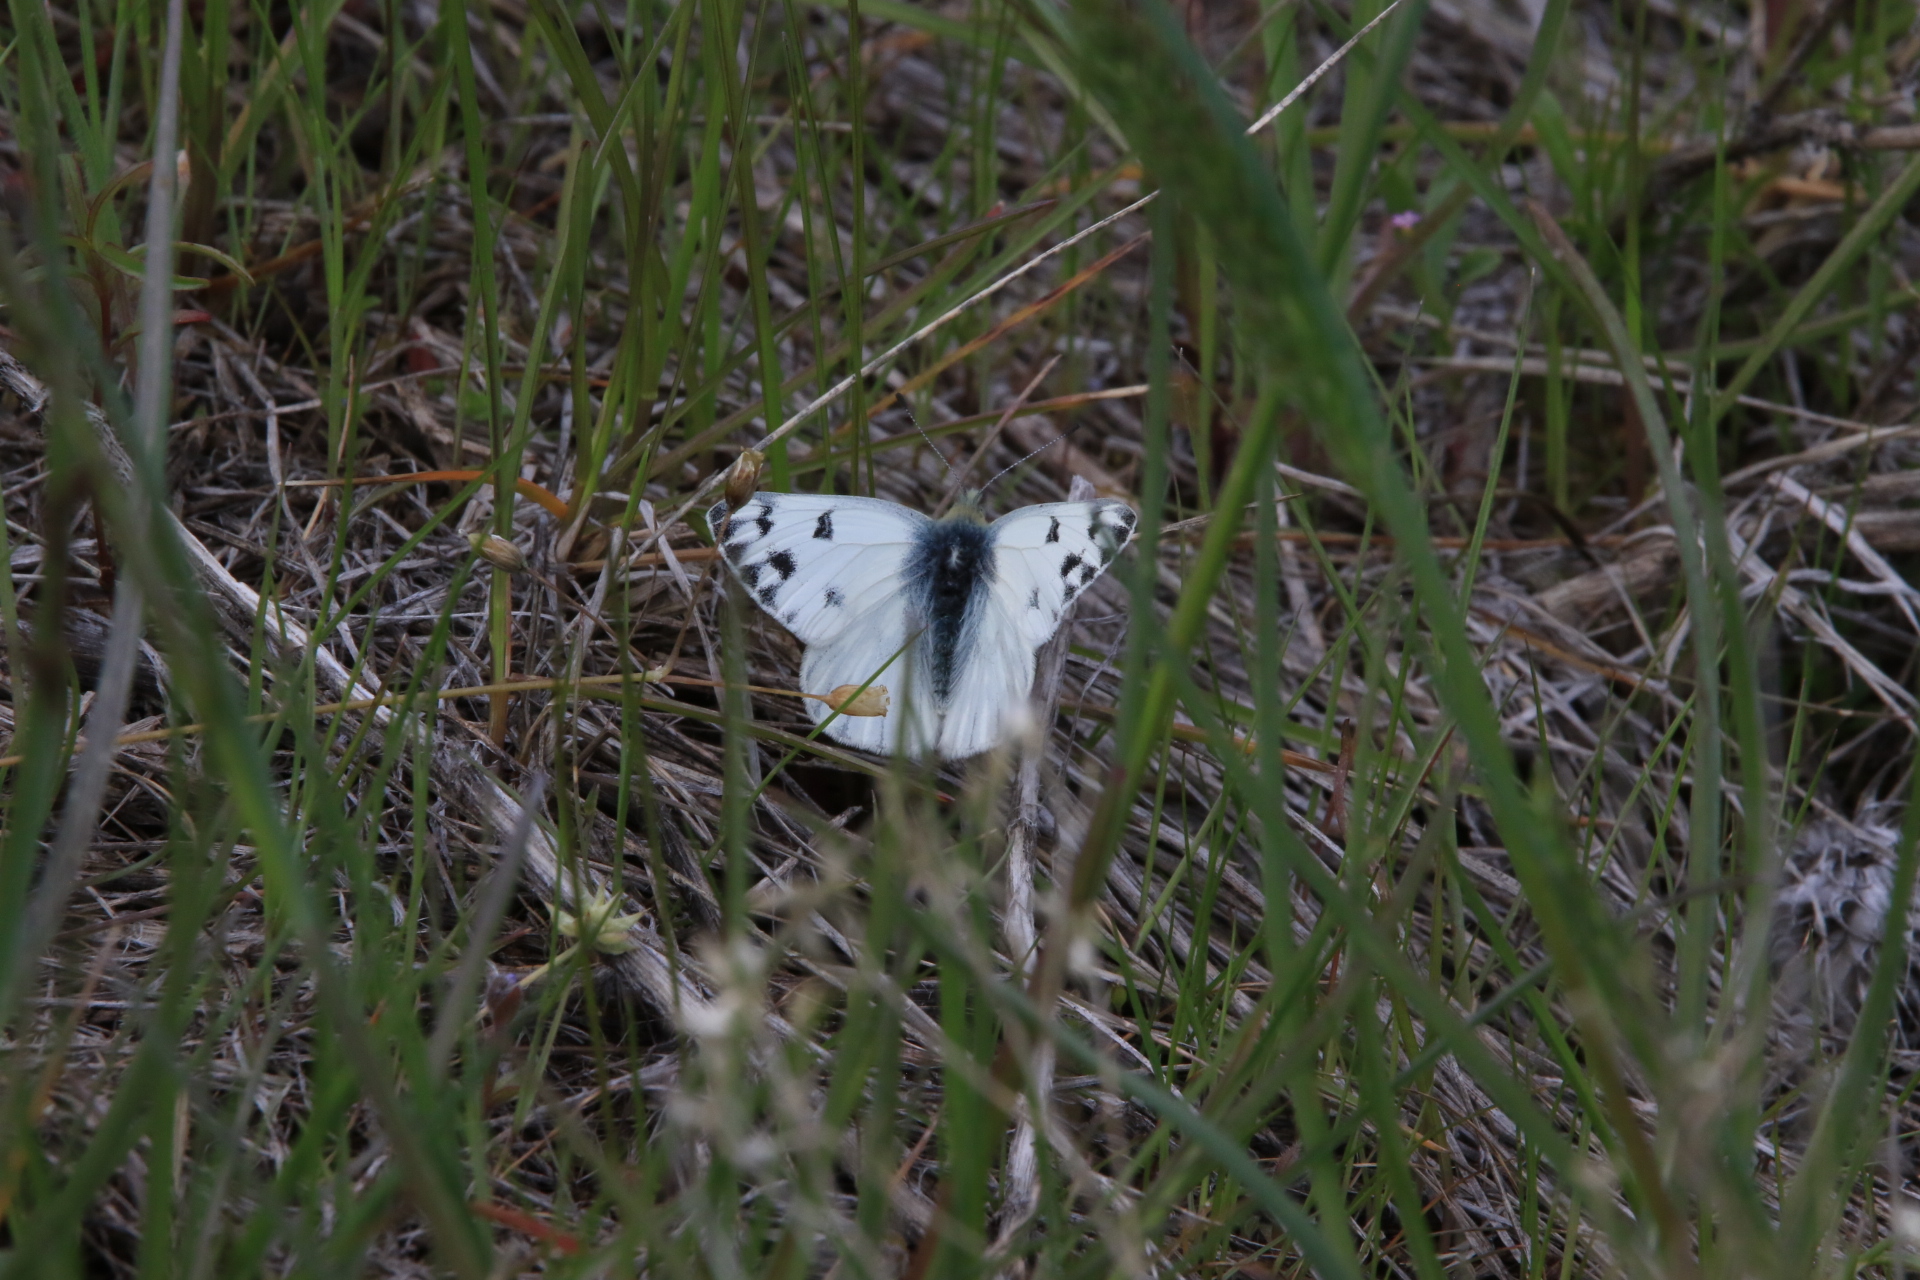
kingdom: Animalia
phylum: Arthropoda
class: Insecta
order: Lepidoptera
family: Pieridae
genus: Pontia
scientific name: Pontia occidentalis
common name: Western white
